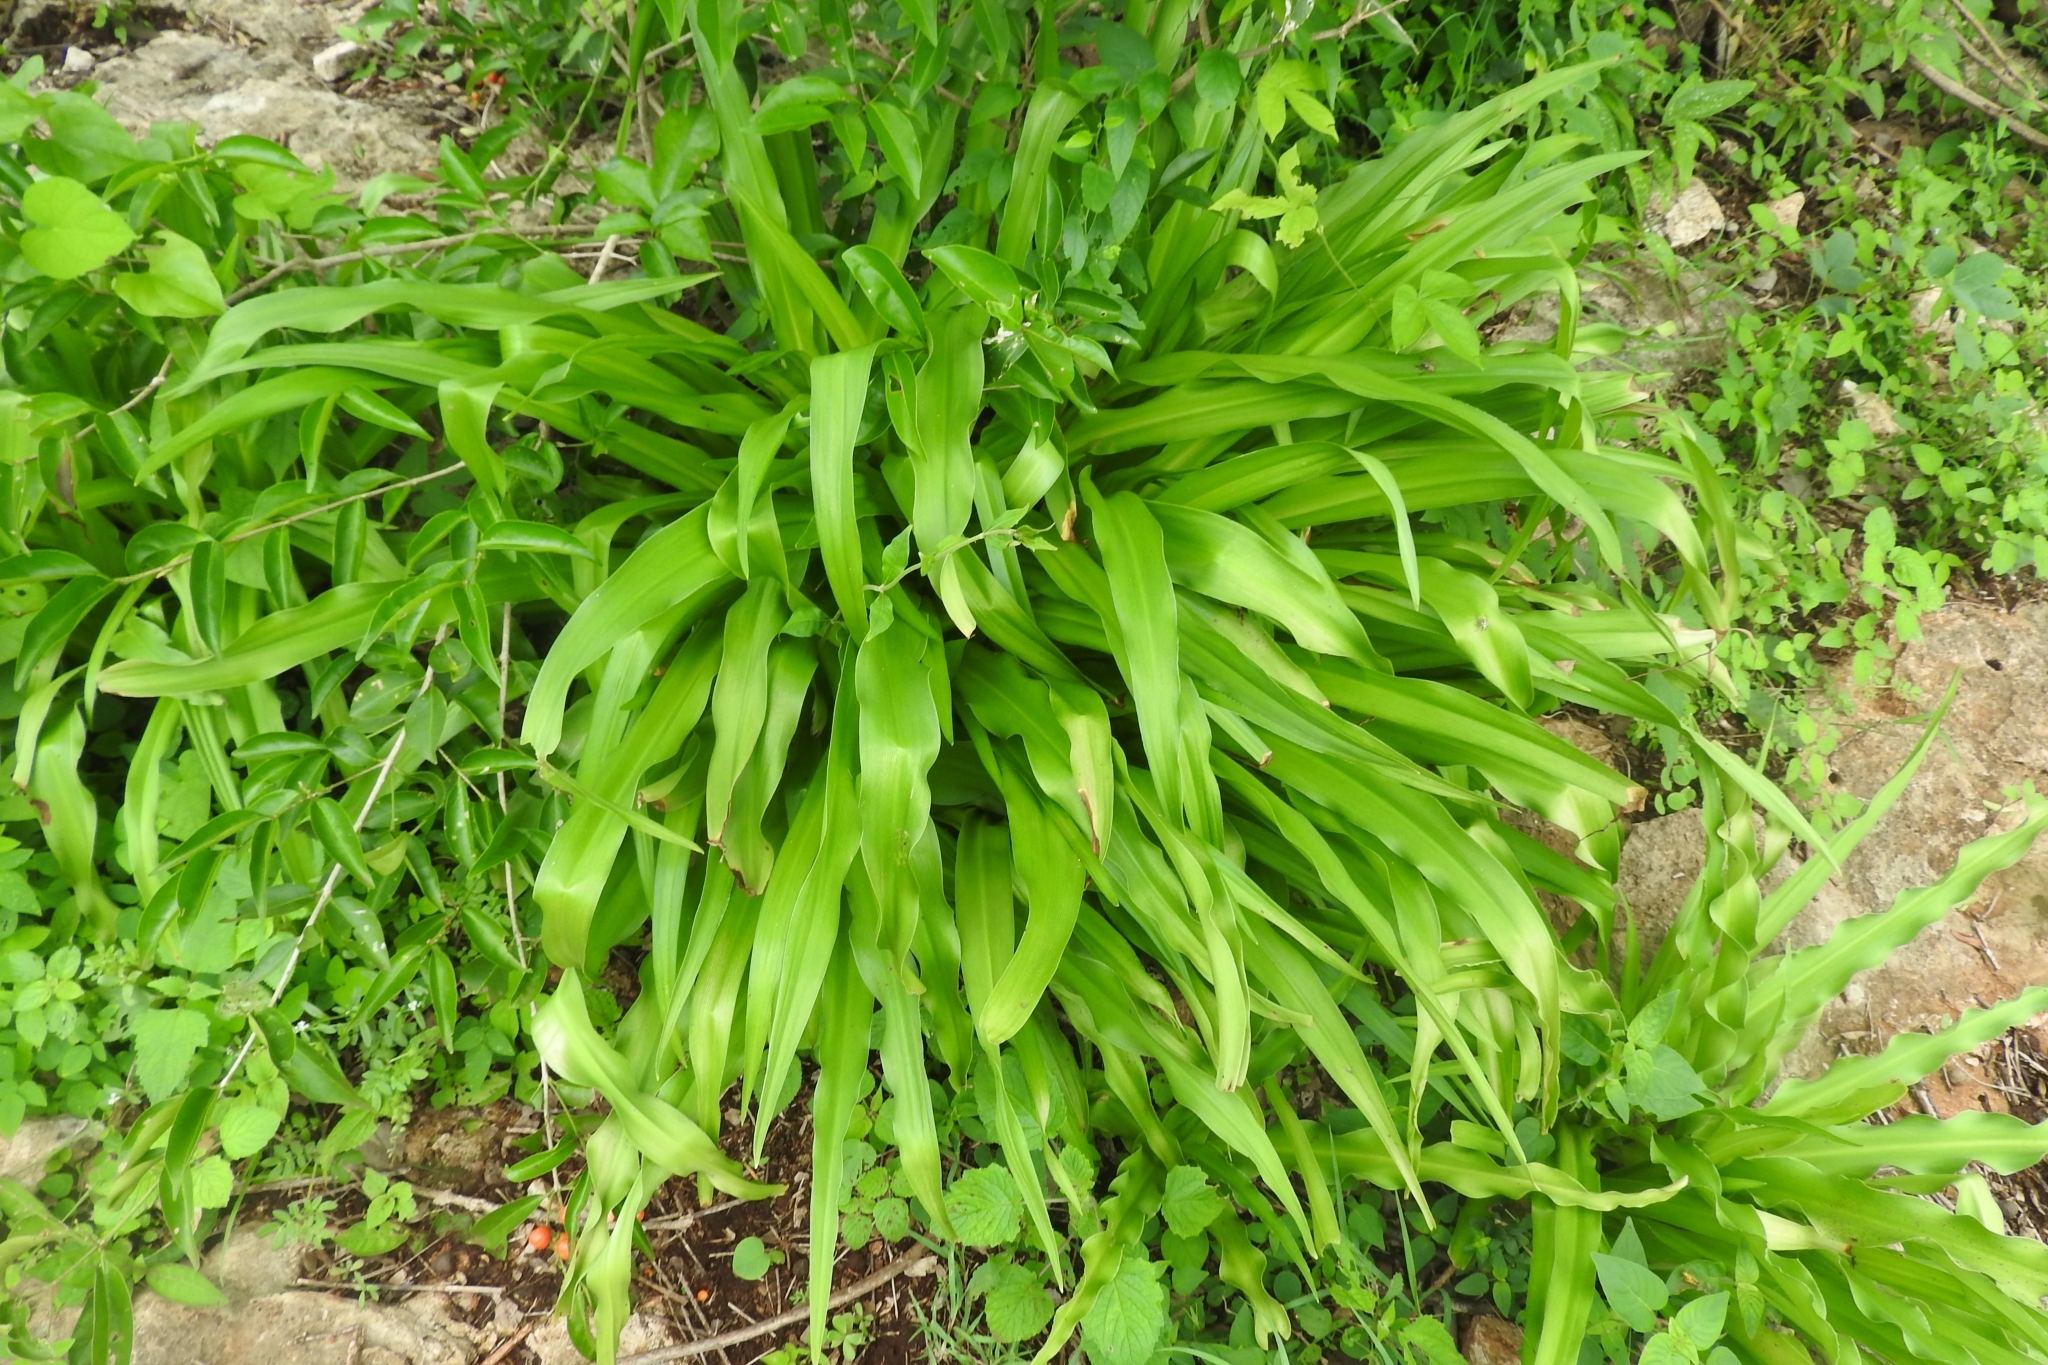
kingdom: Plantae
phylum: Tracheophyta
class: Liliopsida
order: Asparagales
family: Amaryllidaceae
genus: Hymenocallis
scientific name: Hymenocallis littoralis
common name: Beach spiderlily
